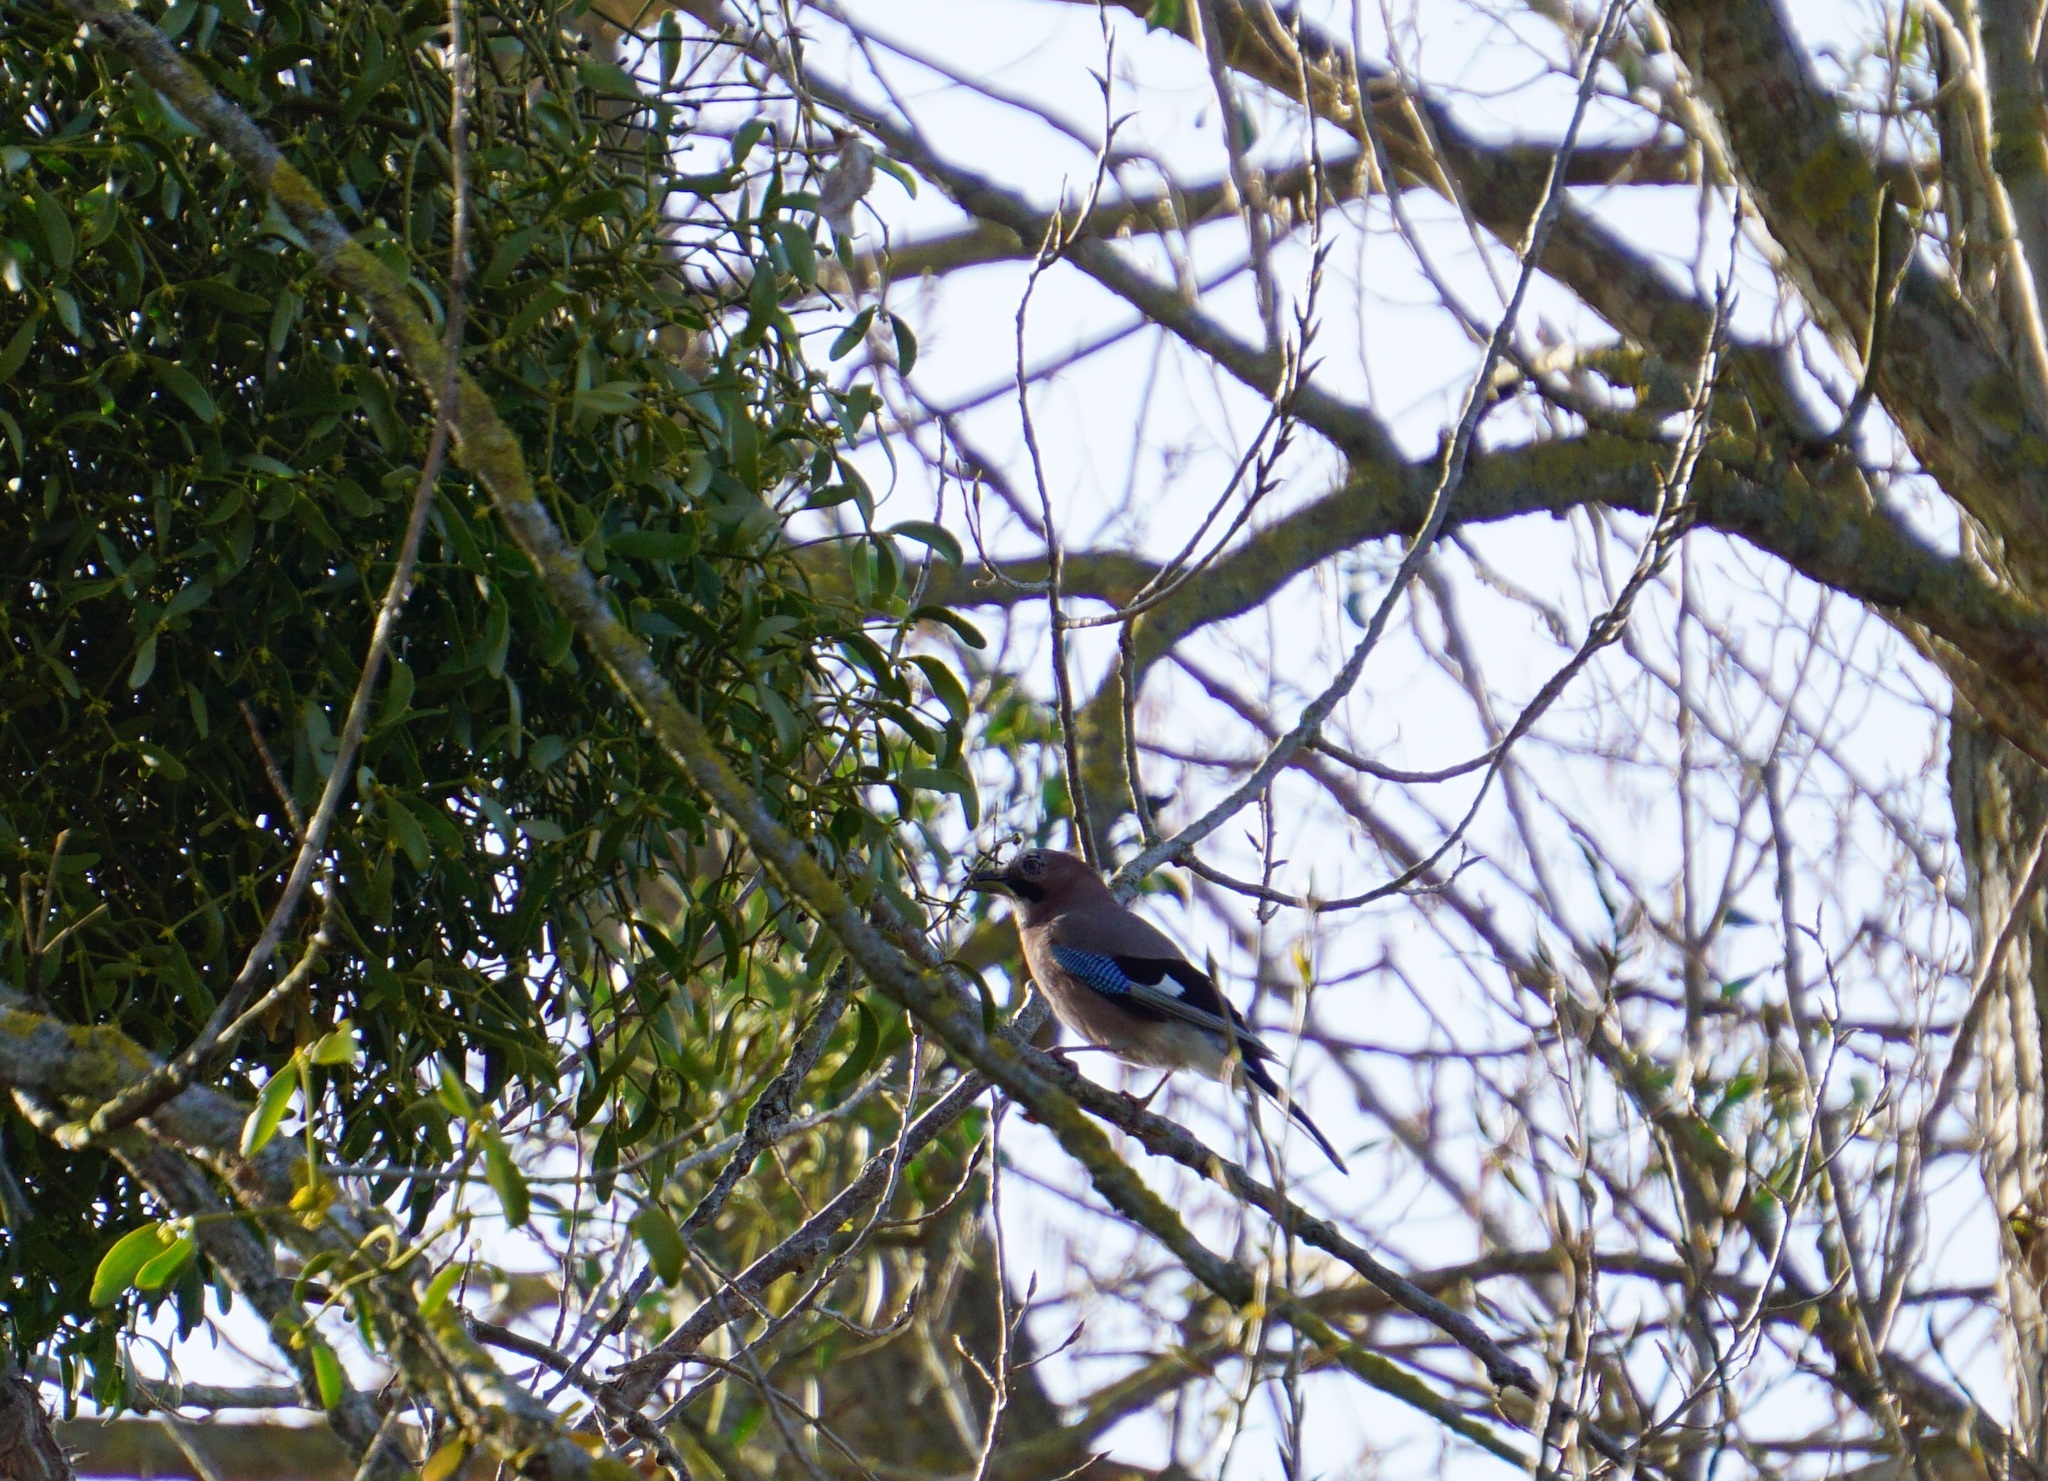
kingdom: Animalia
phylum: Chordata
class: Aves
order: Passeriformes
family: Corvidae
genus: Garrulus
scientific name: Garrulus glandarius
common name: Eurasian jay
